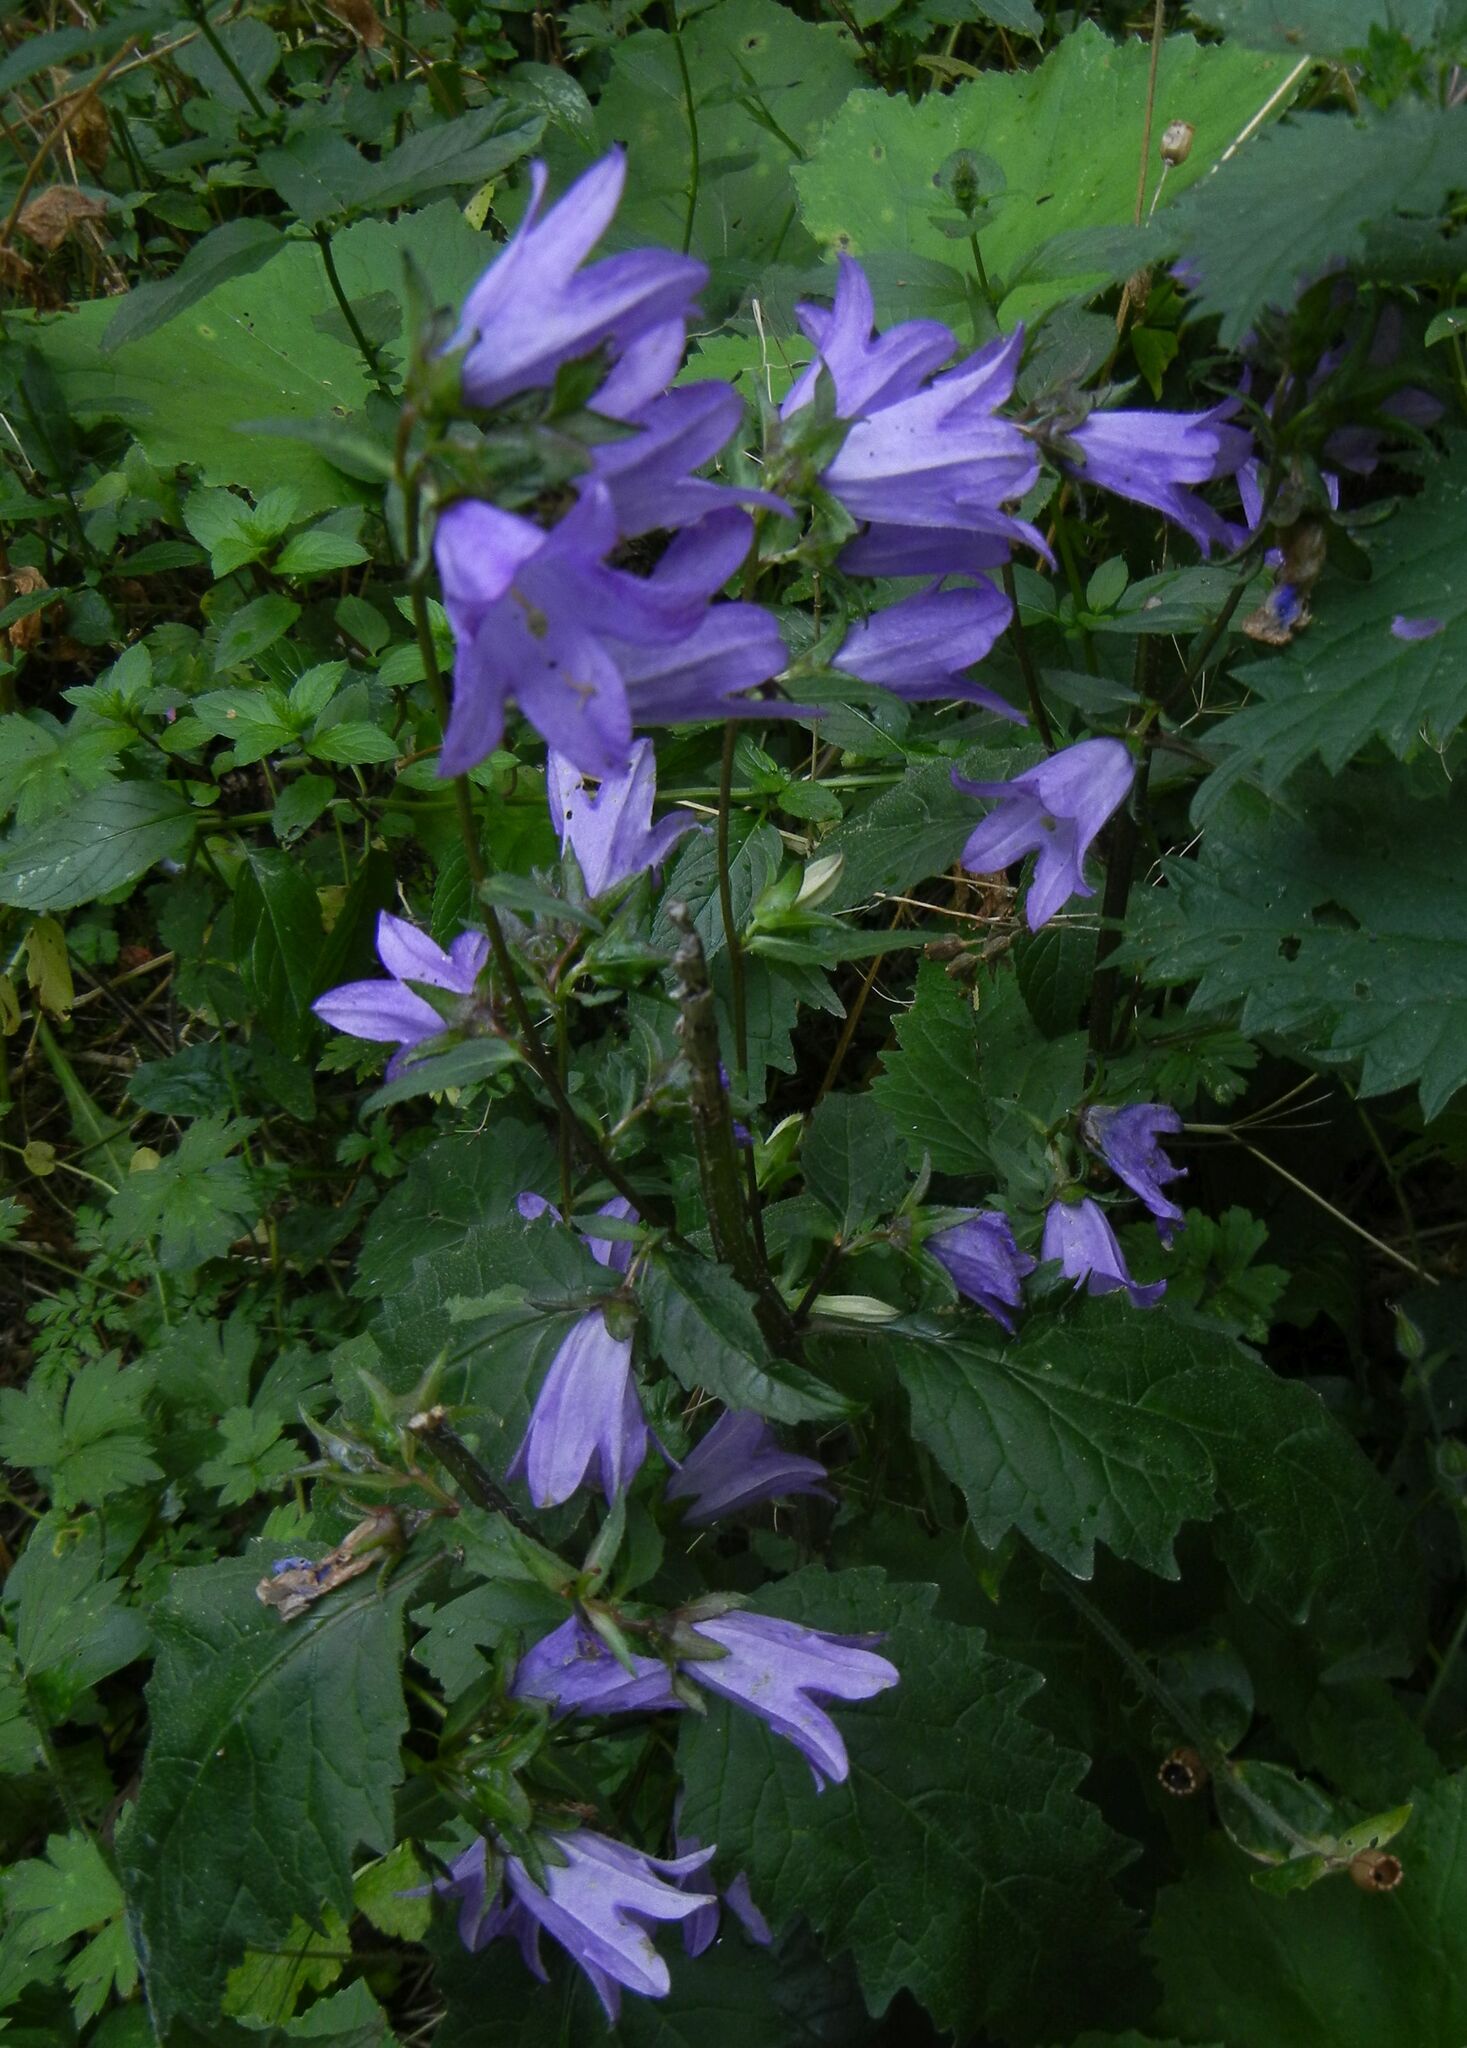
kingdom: Plantae
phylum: Tracheophyta
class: Magnoliopsida
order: Asterales
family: Campanulaceae
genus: Campanula
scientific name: Campanula trachelium
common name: Nettle-leaved bellflower
